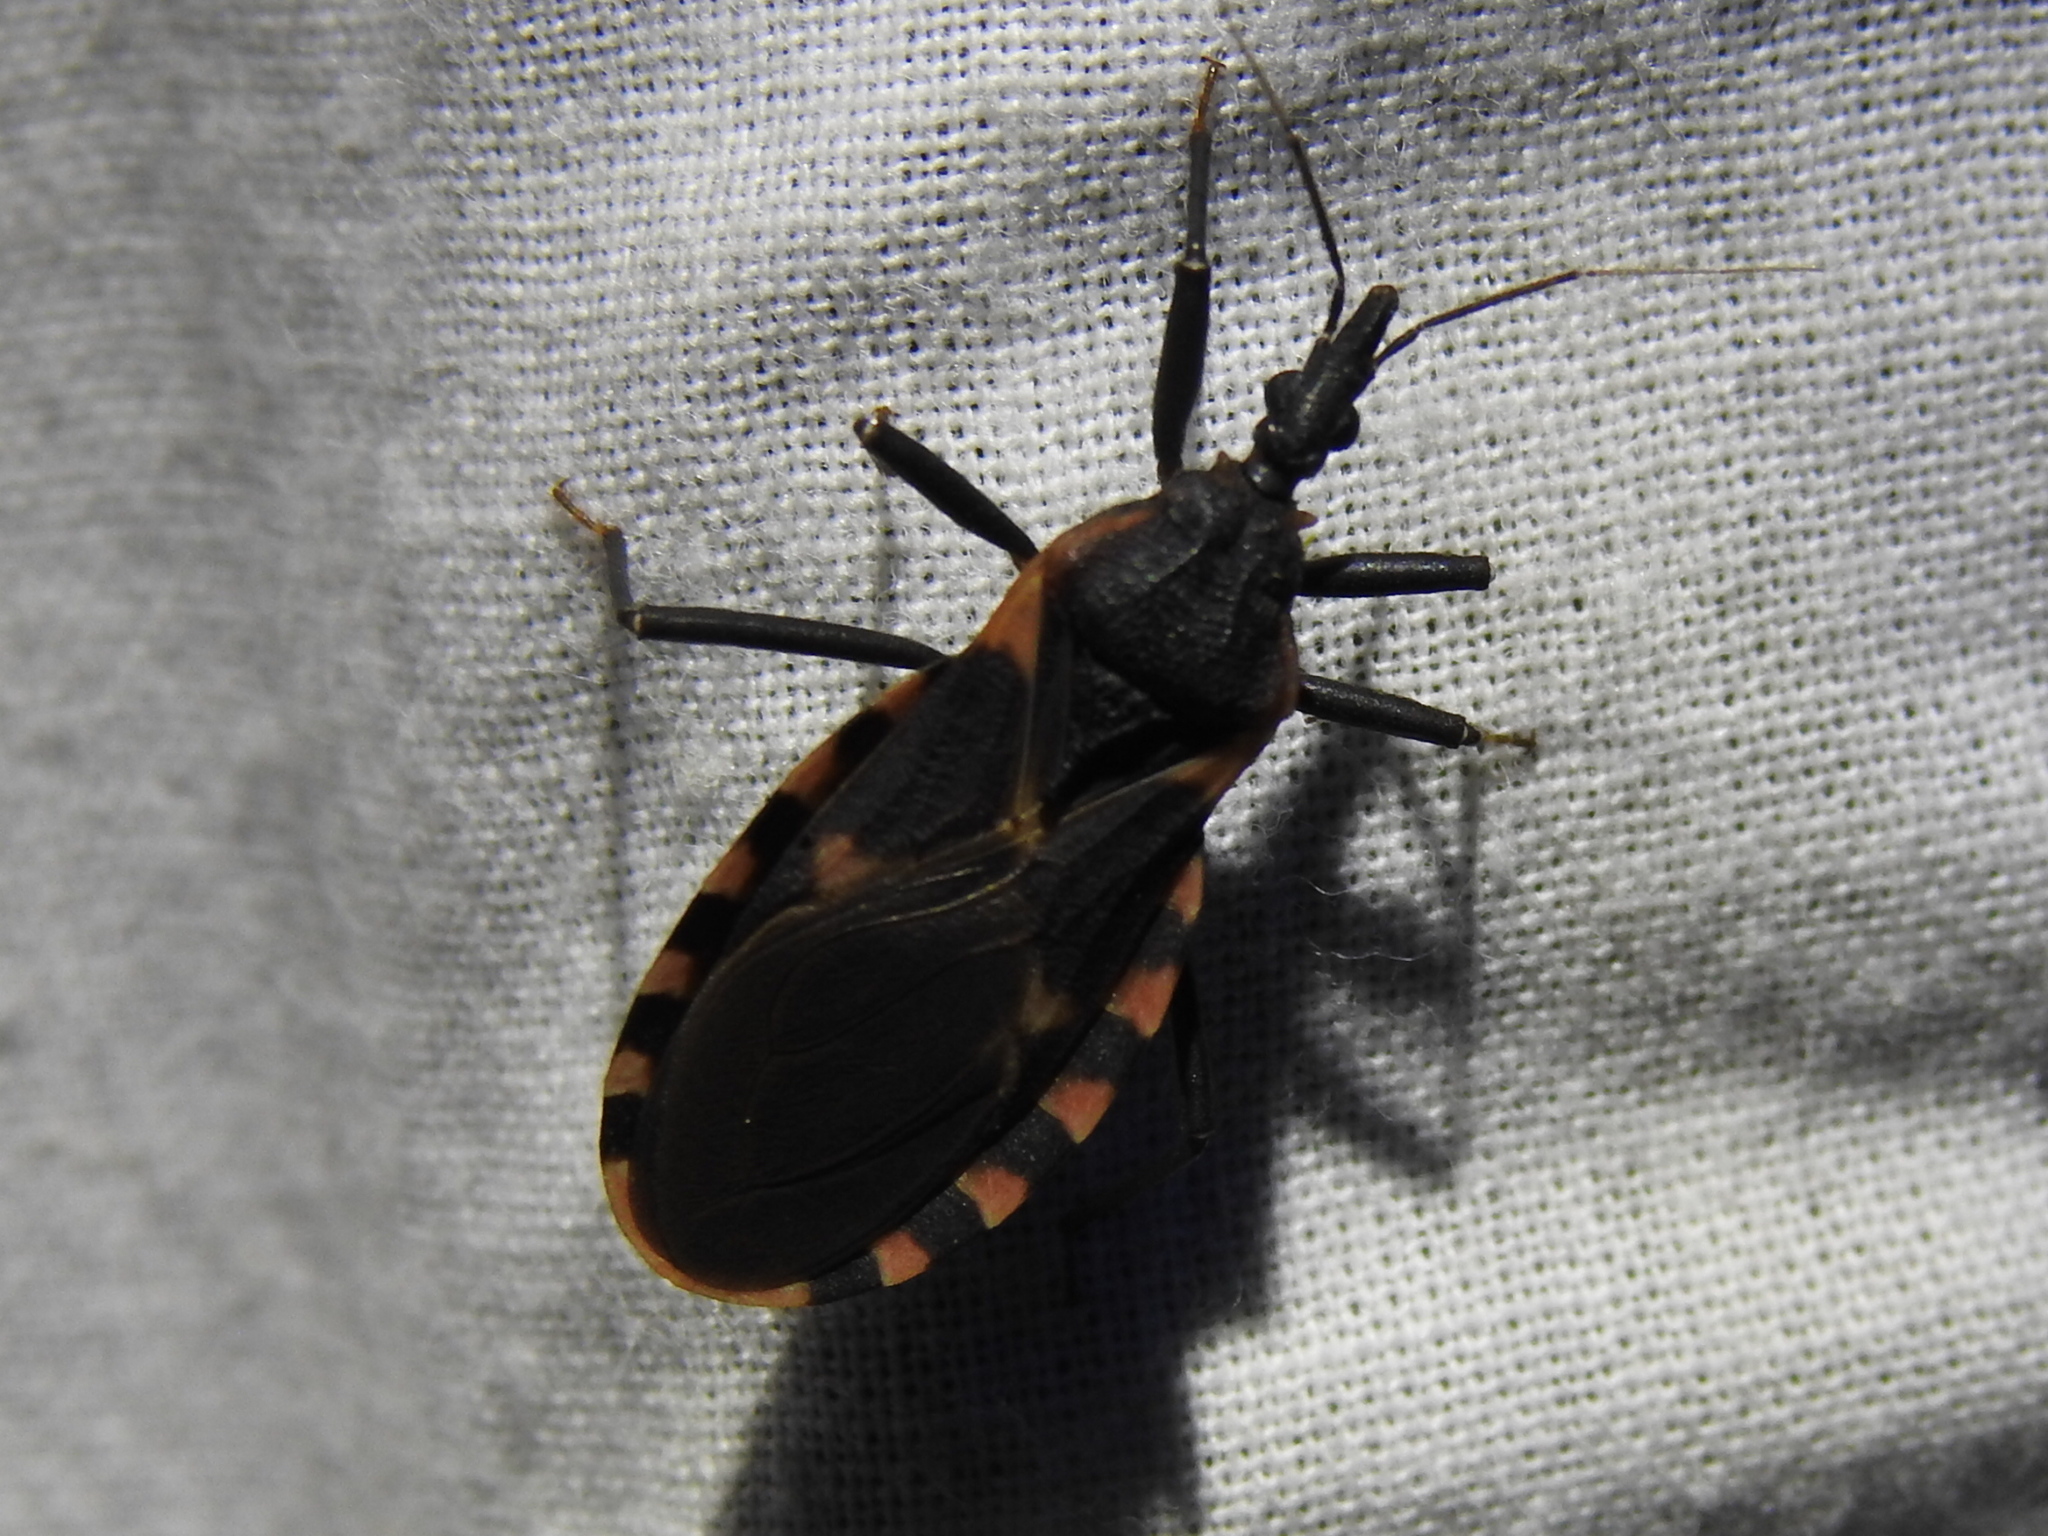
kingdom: Animalia
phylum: Arthropoda
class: Insecta
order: Hemiptera
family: Reduviidae
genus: Triatoma
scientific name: Triatoma sanguisuga
